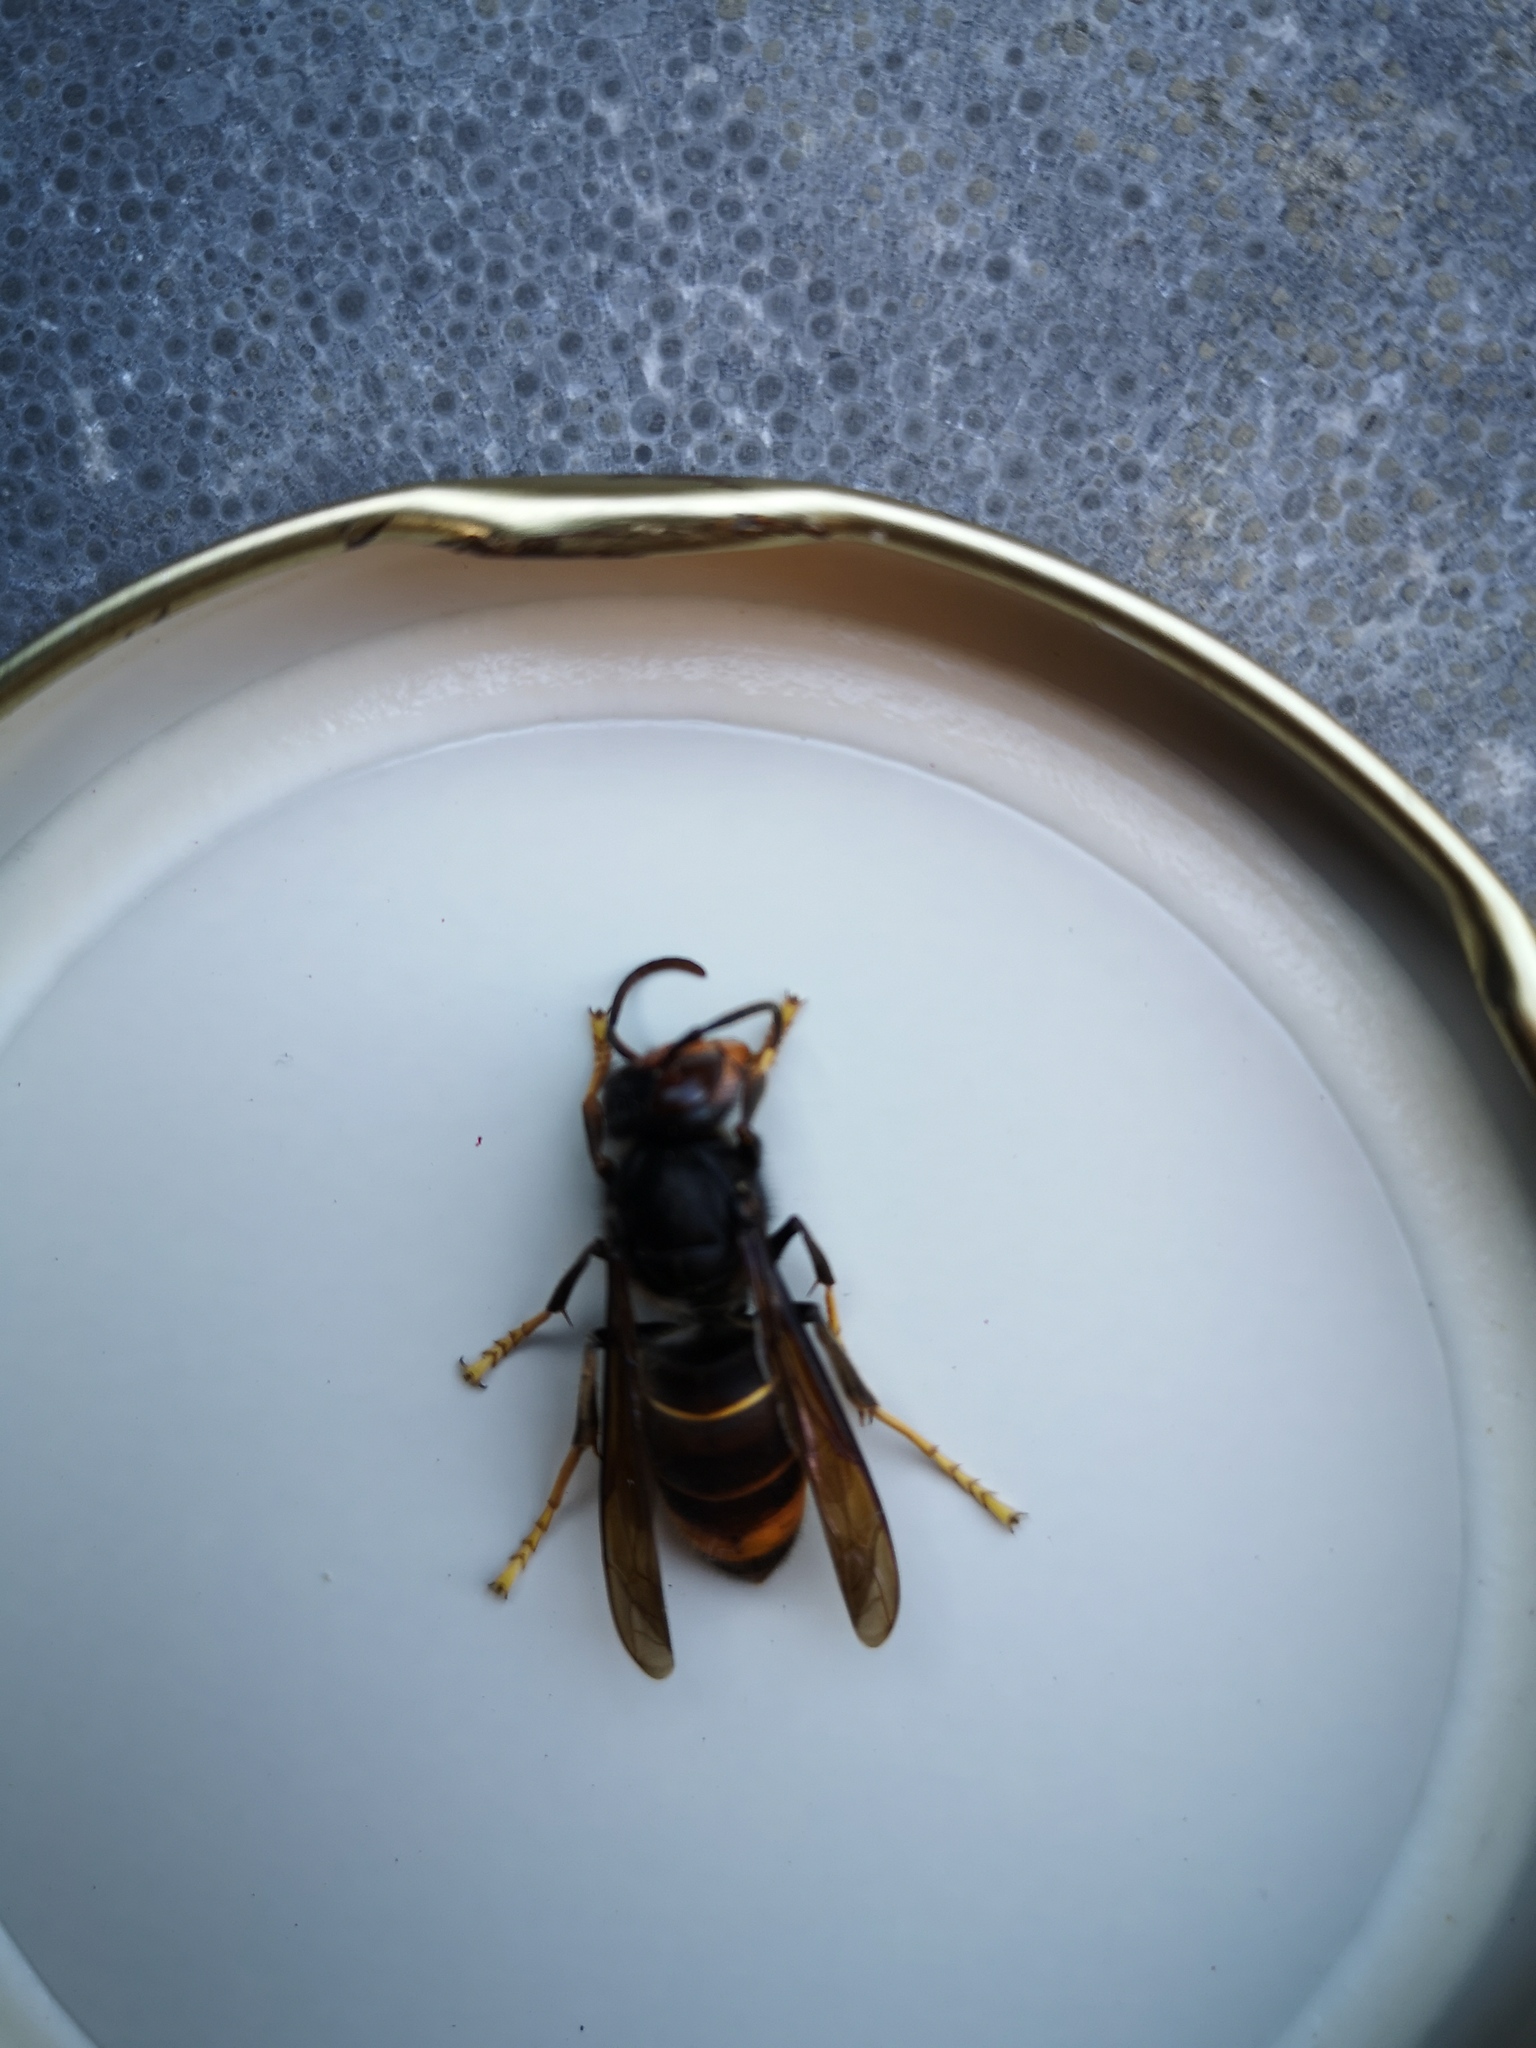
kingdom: Animalia
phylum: Arthropoda
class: Insecta
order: Hymenoptera
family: Vespidae
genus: Vespa
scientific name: Vespa velutina
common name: Asian hornet
